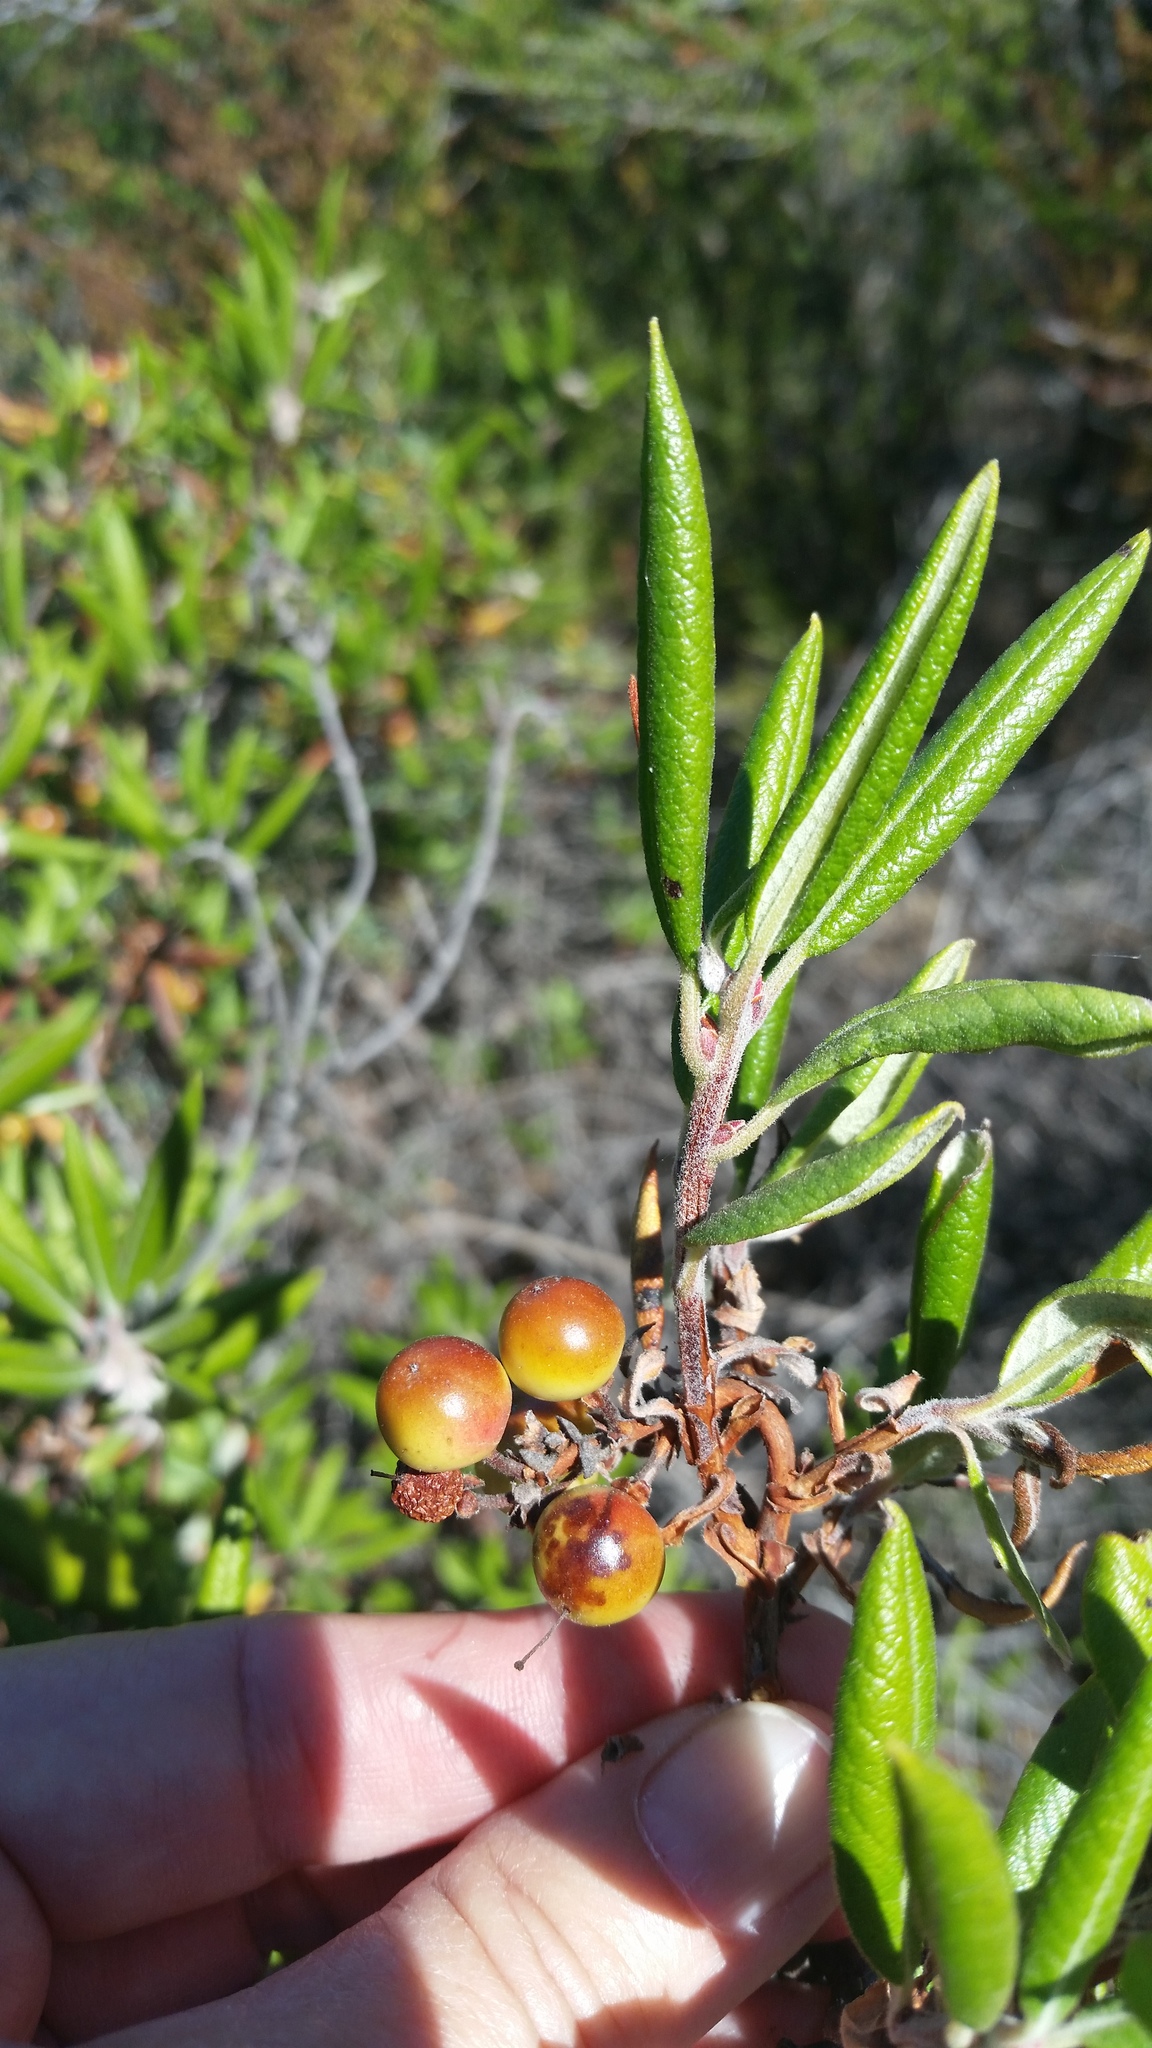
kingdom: Plantae
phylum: Tracheophyta
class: Magnoliopsida
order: Ericales
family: Ericaceae
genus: Arctostaphylos
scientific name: Arctostaphylos bicolor
